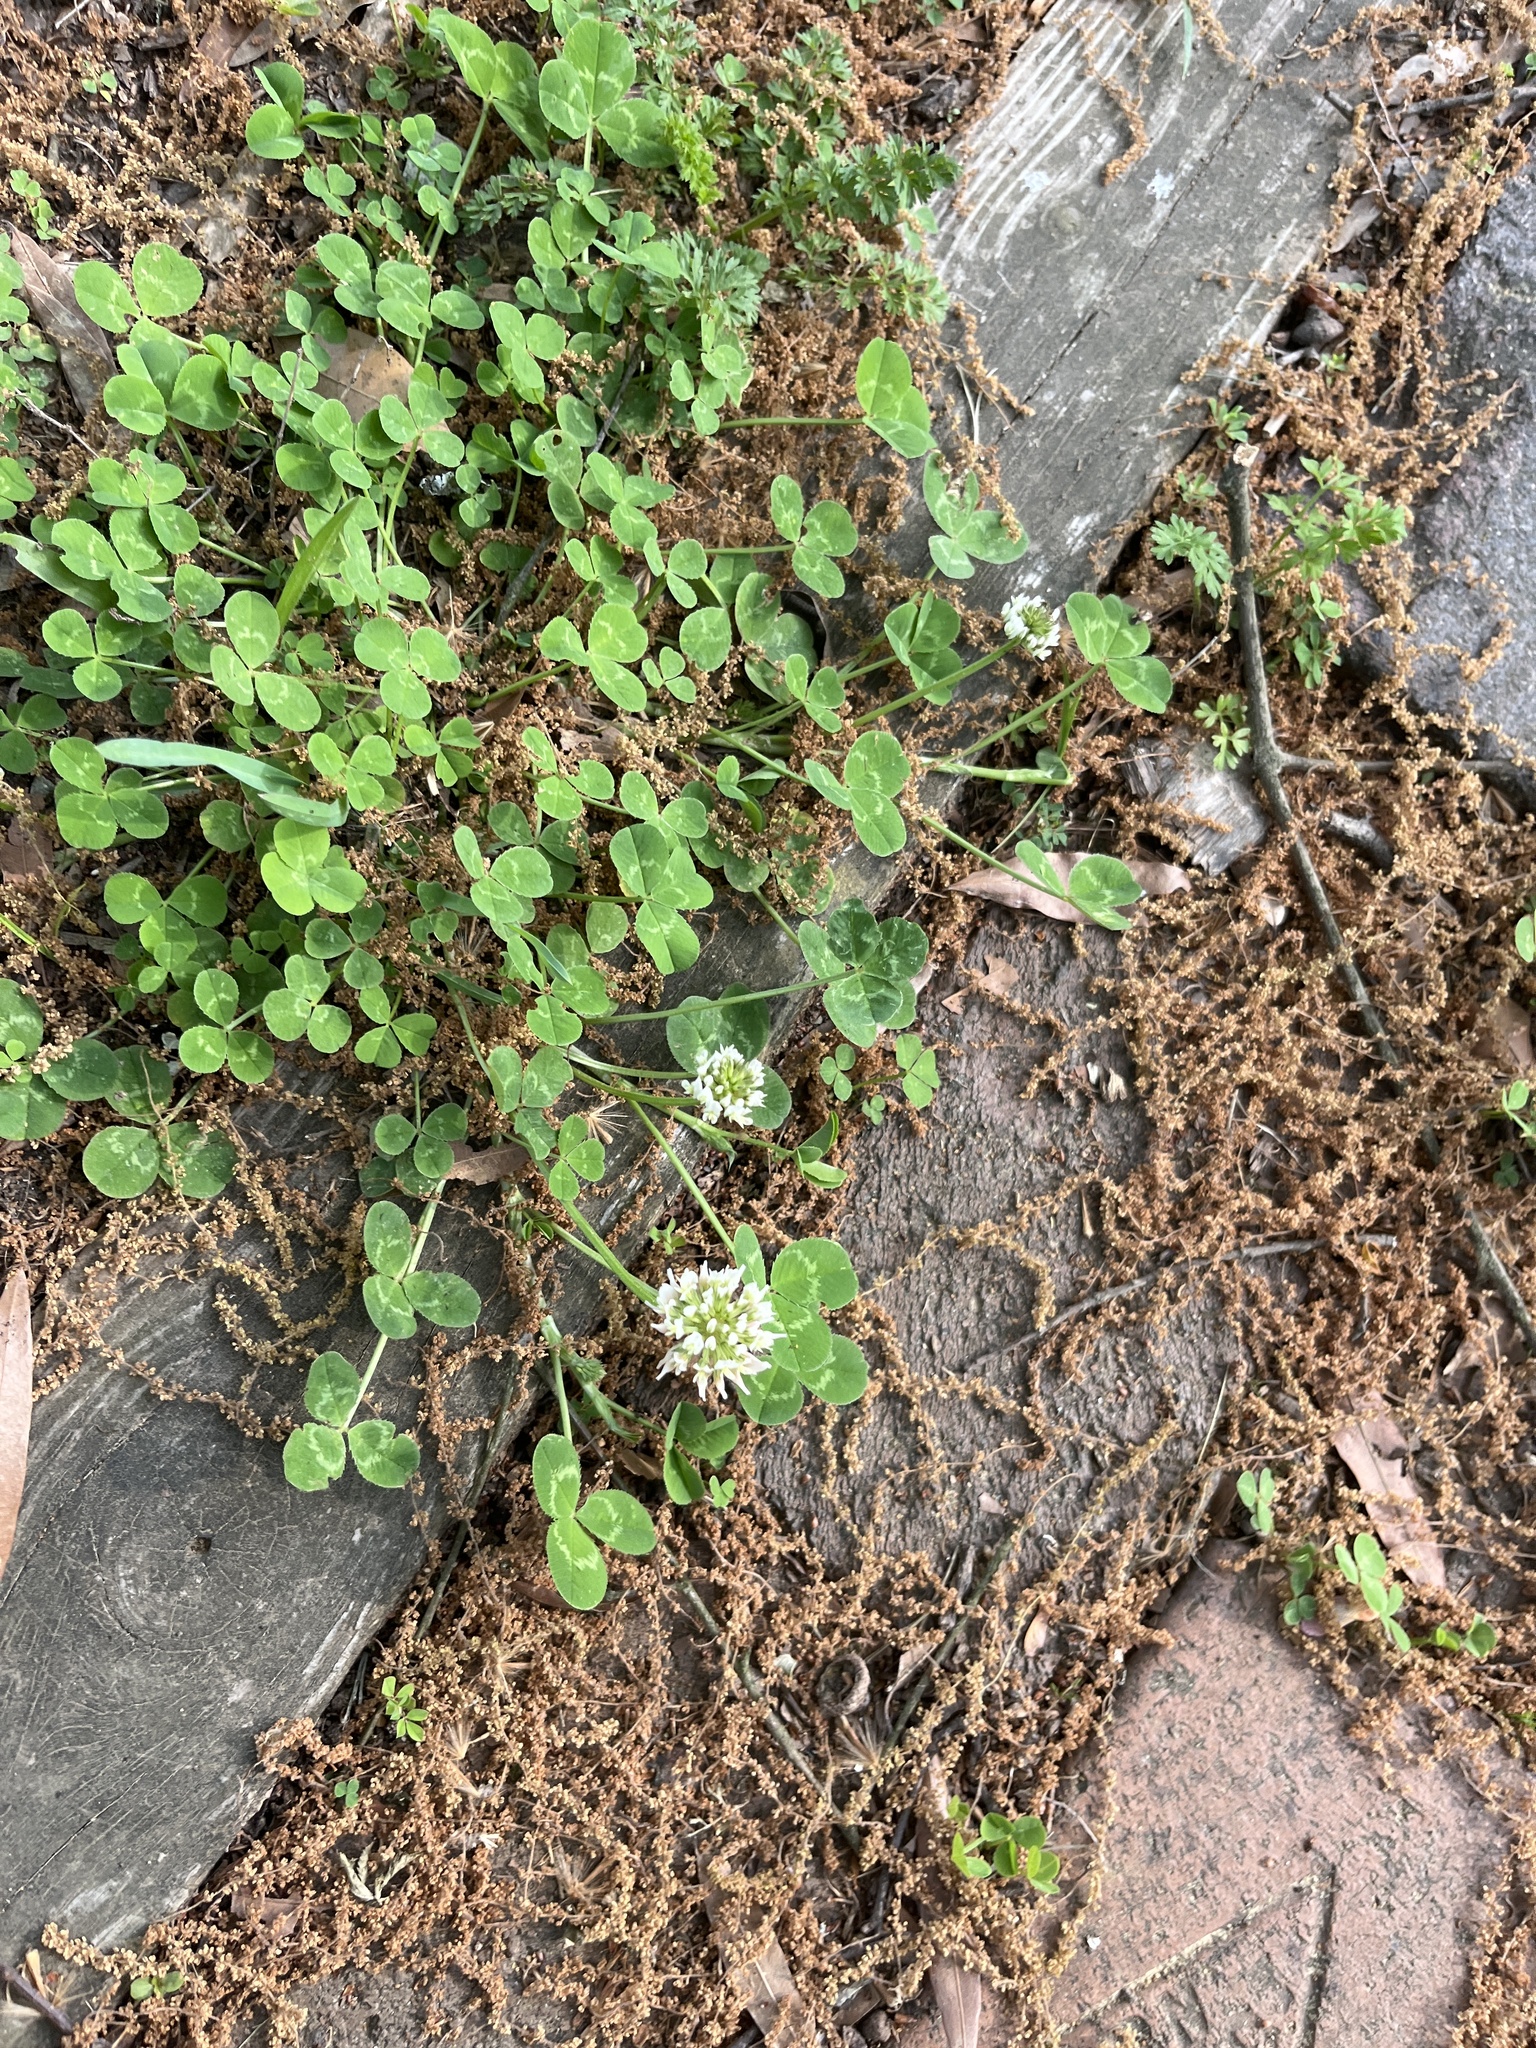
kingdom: Plantae
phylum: Tracheophyta
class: Magnoliopsida
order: Fabales
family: Fabaceae
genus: Trifolium
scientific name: Trifolium repens
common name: White clover
